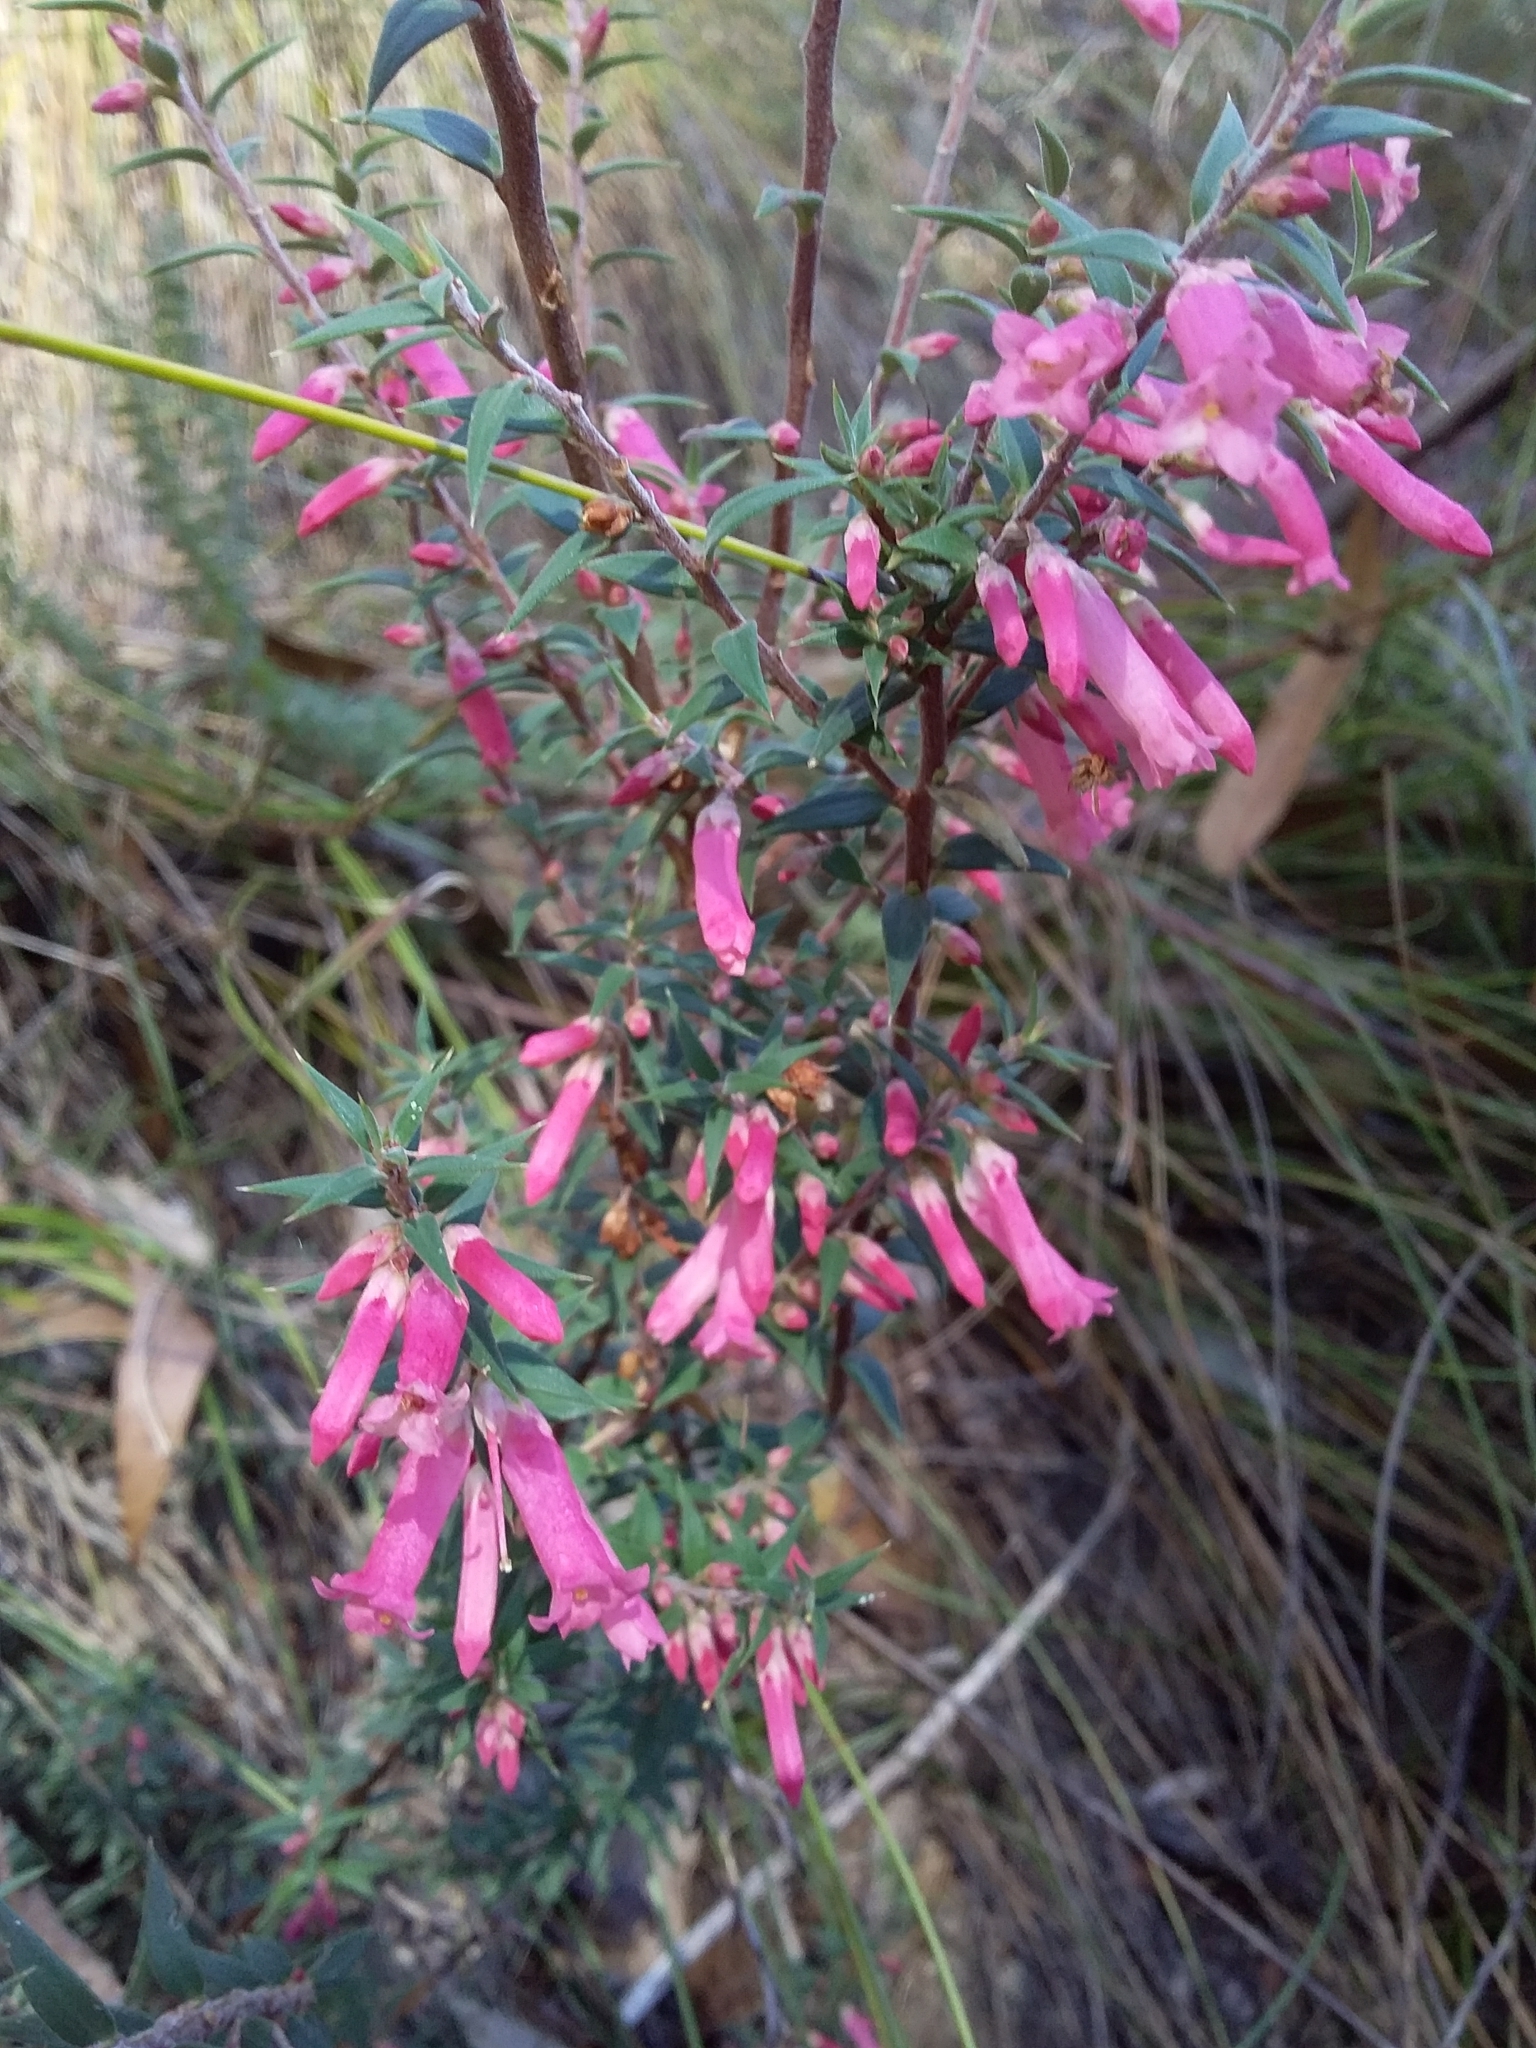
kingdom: Plantae
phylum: Tracheophyta
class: Magnoliopsida
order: Ericales
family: Ericaceae
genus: Epacris
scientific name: Epacris impressa
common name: Common-heath
